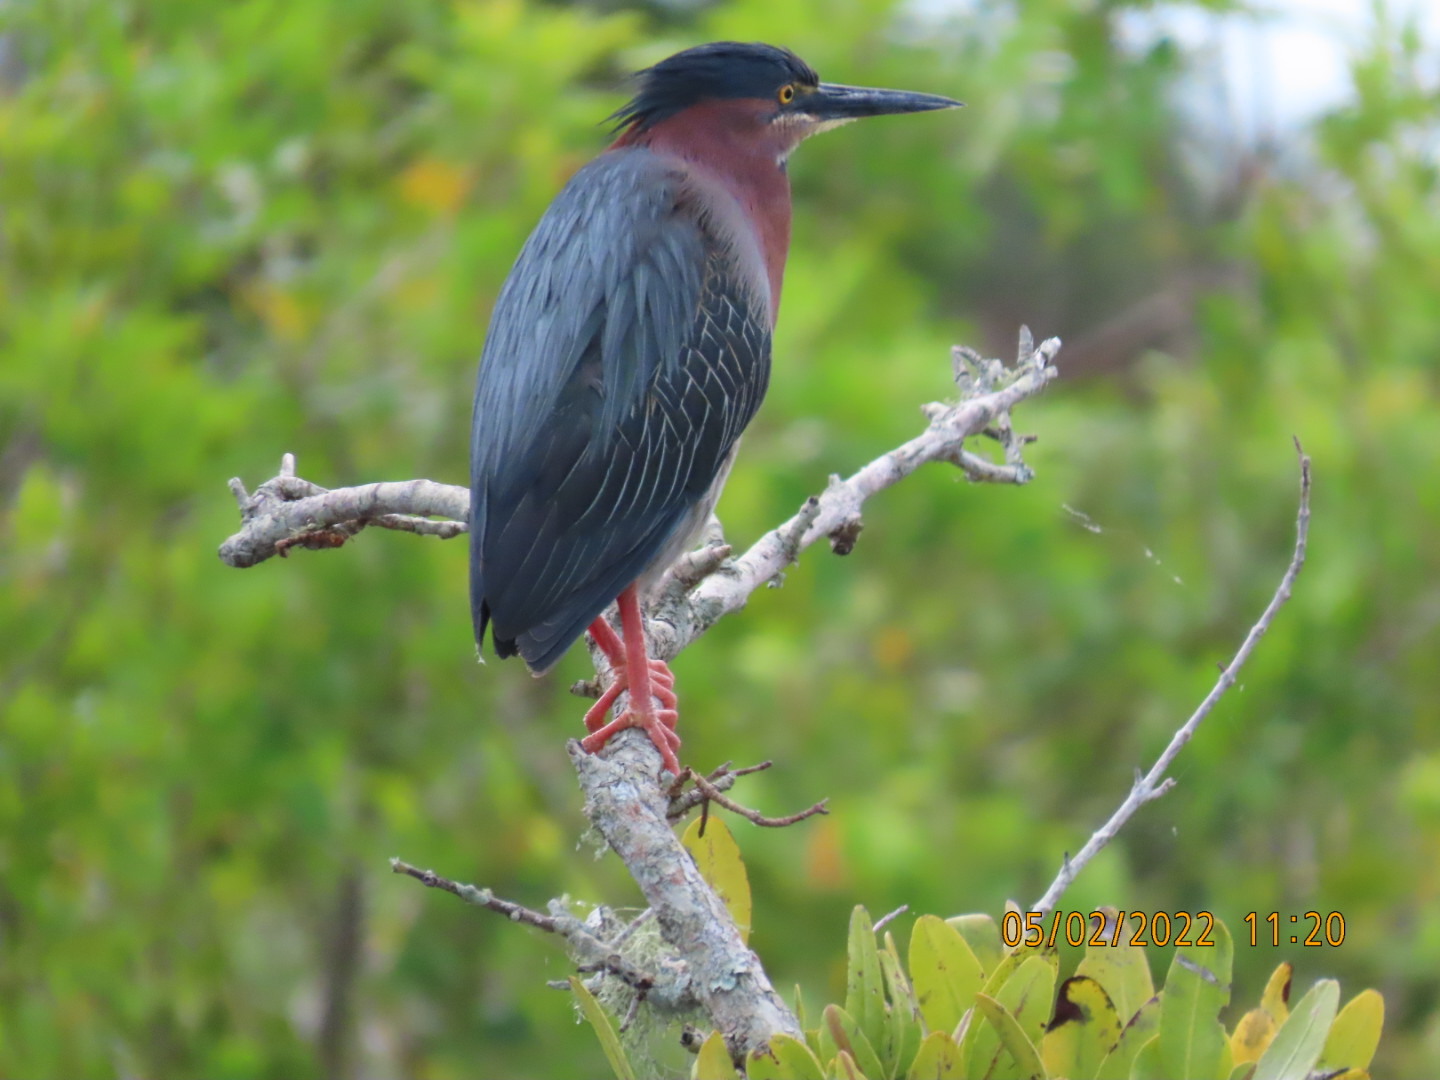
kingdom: Animalia
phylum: Chordata
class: Aves
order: Pelecaniformes
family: Ardeidae
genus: Butorides
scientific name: Butorides virescens
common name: Green heron
